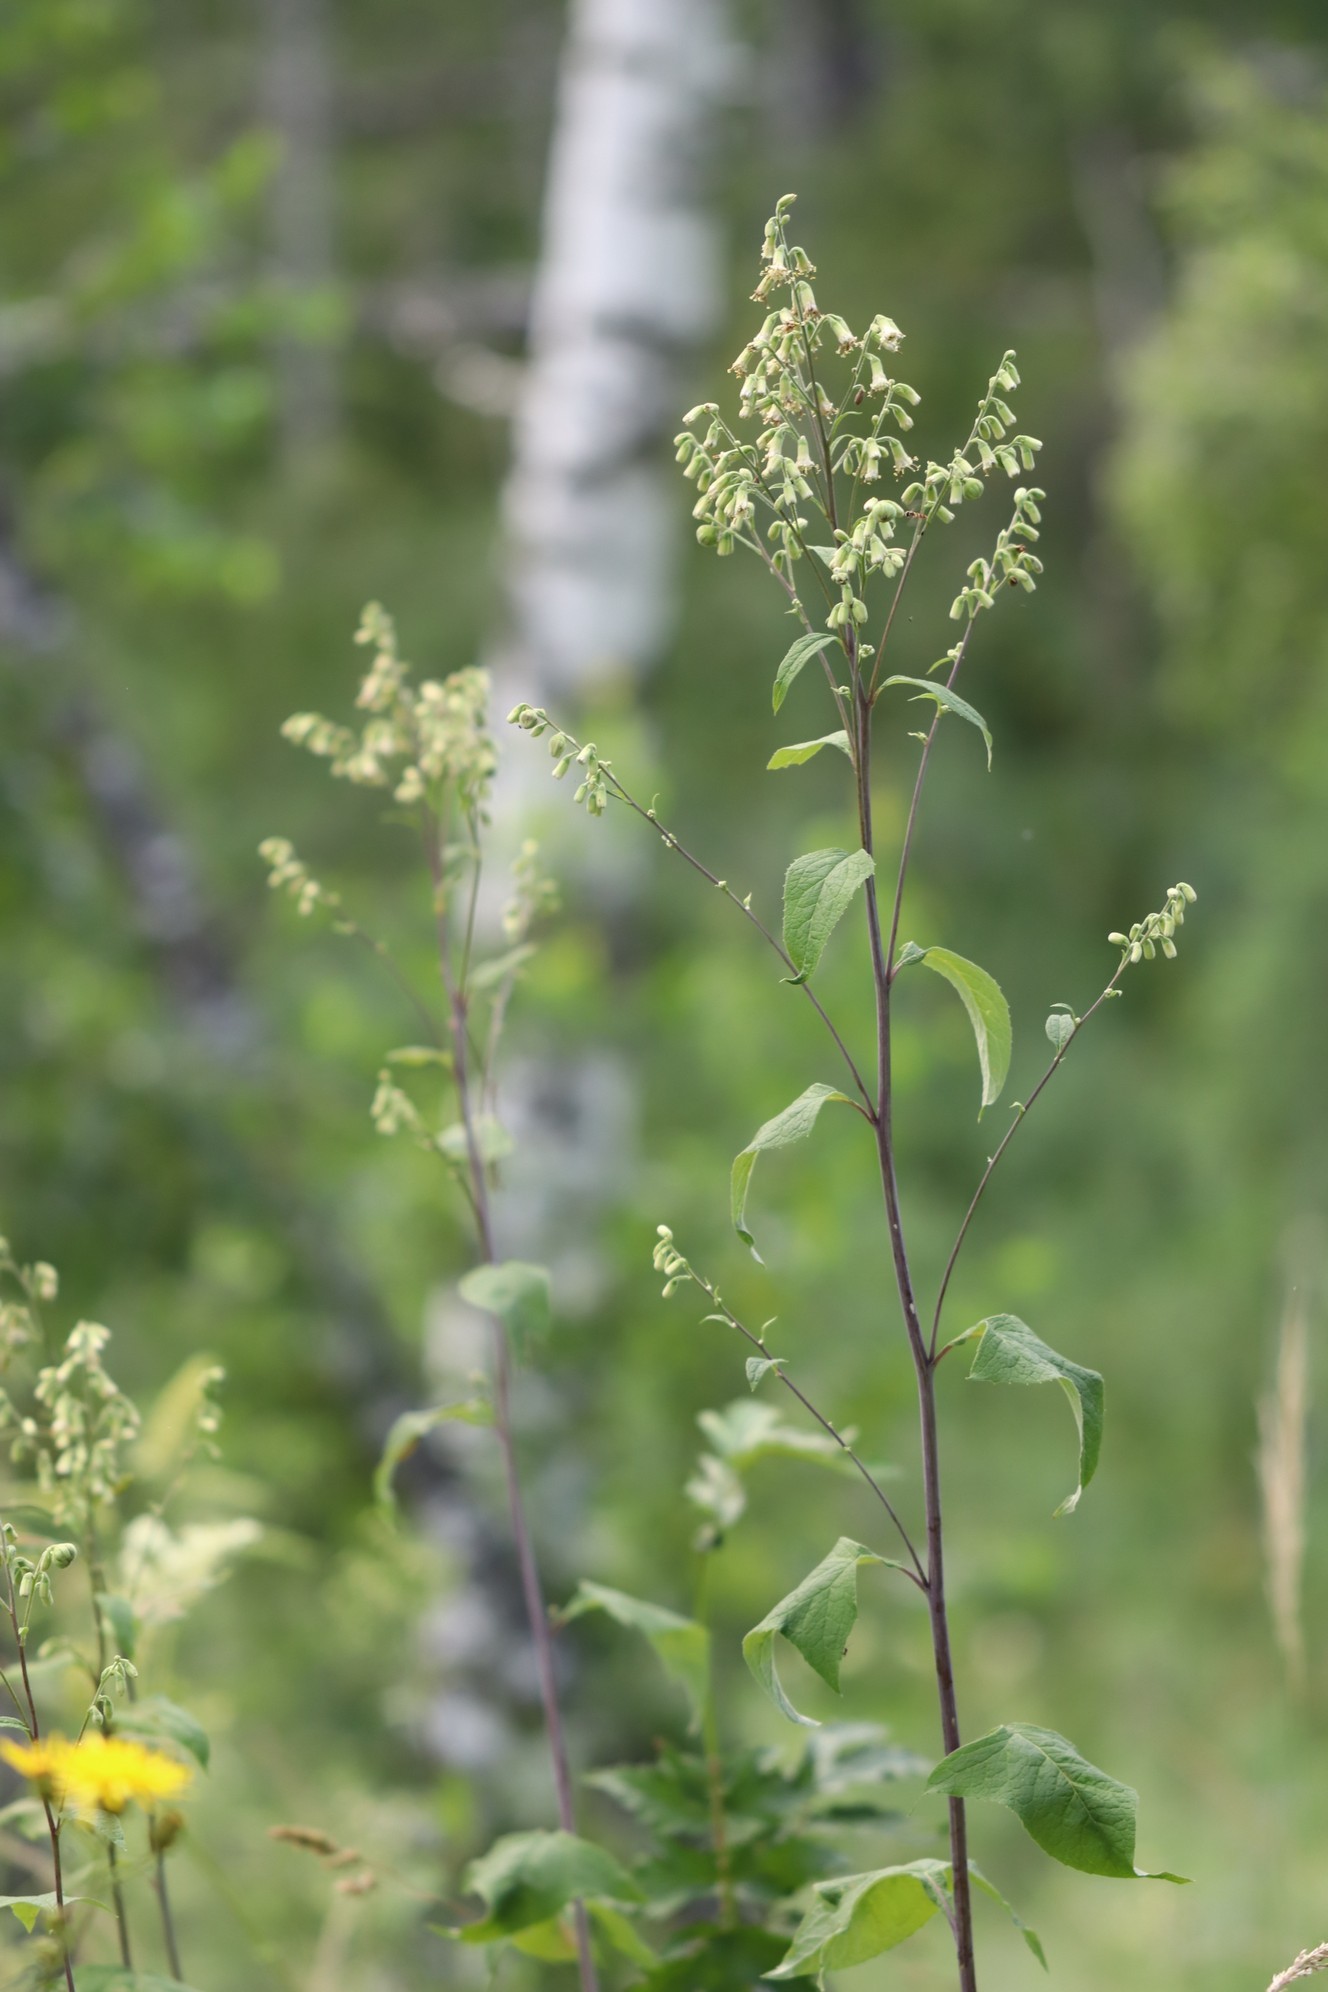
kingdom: Plantae
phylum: Tracheophyta
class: Magnoliopsida
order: Asterales
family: Asteraceae
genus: Parasenecio
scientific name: Parasenecio hastatus
